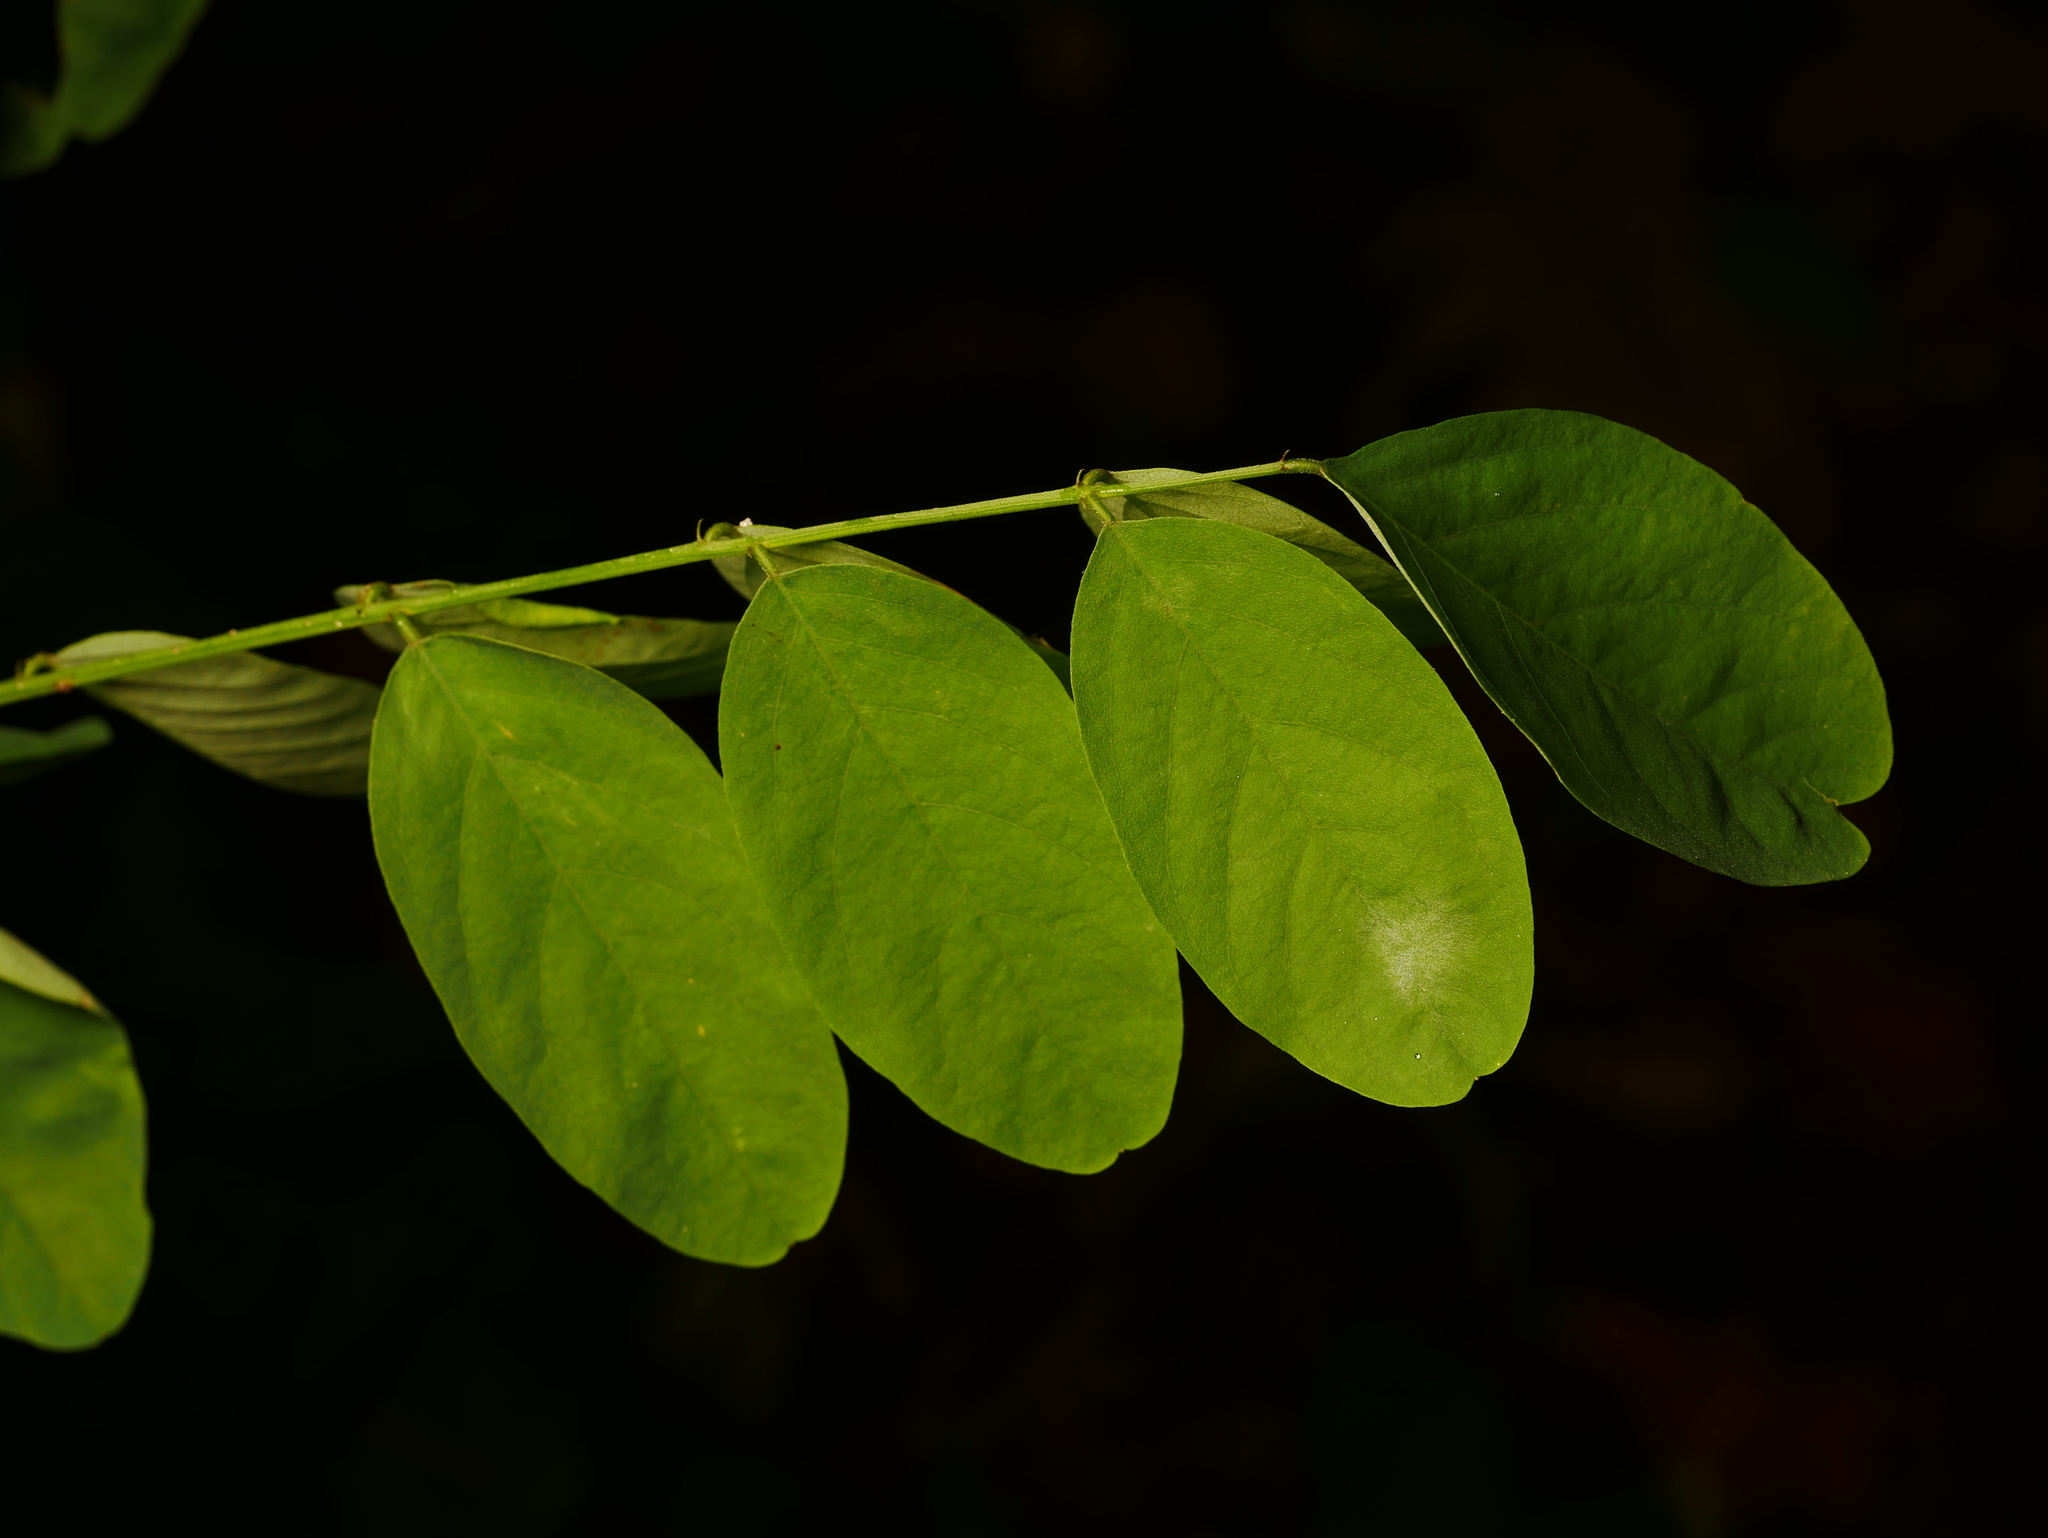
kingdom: Plantae
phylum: Tracheophyta
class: Magnoliopsida
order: Fabales
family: Fabaceae
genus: Robinia
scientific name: Robinia pseudoacacia
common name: Black locust
